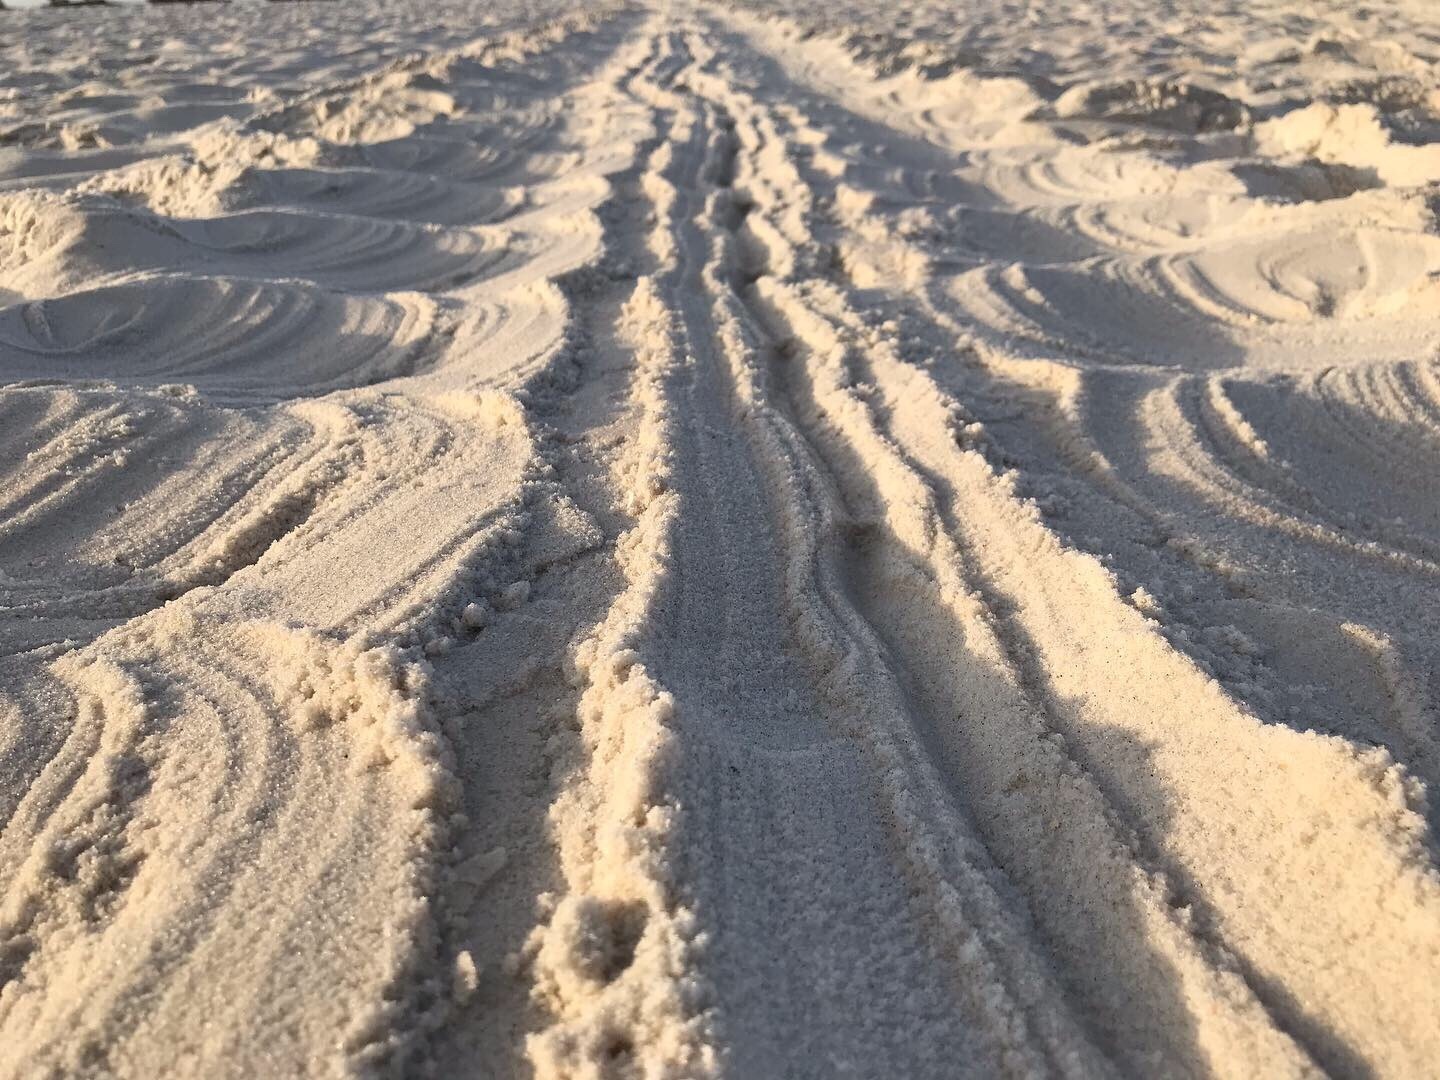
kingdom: Animalia
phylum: Chordata
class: Testudines
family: Cheloniidae
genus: Chelonia
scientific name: Chelonia mydas
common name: Green turtle
